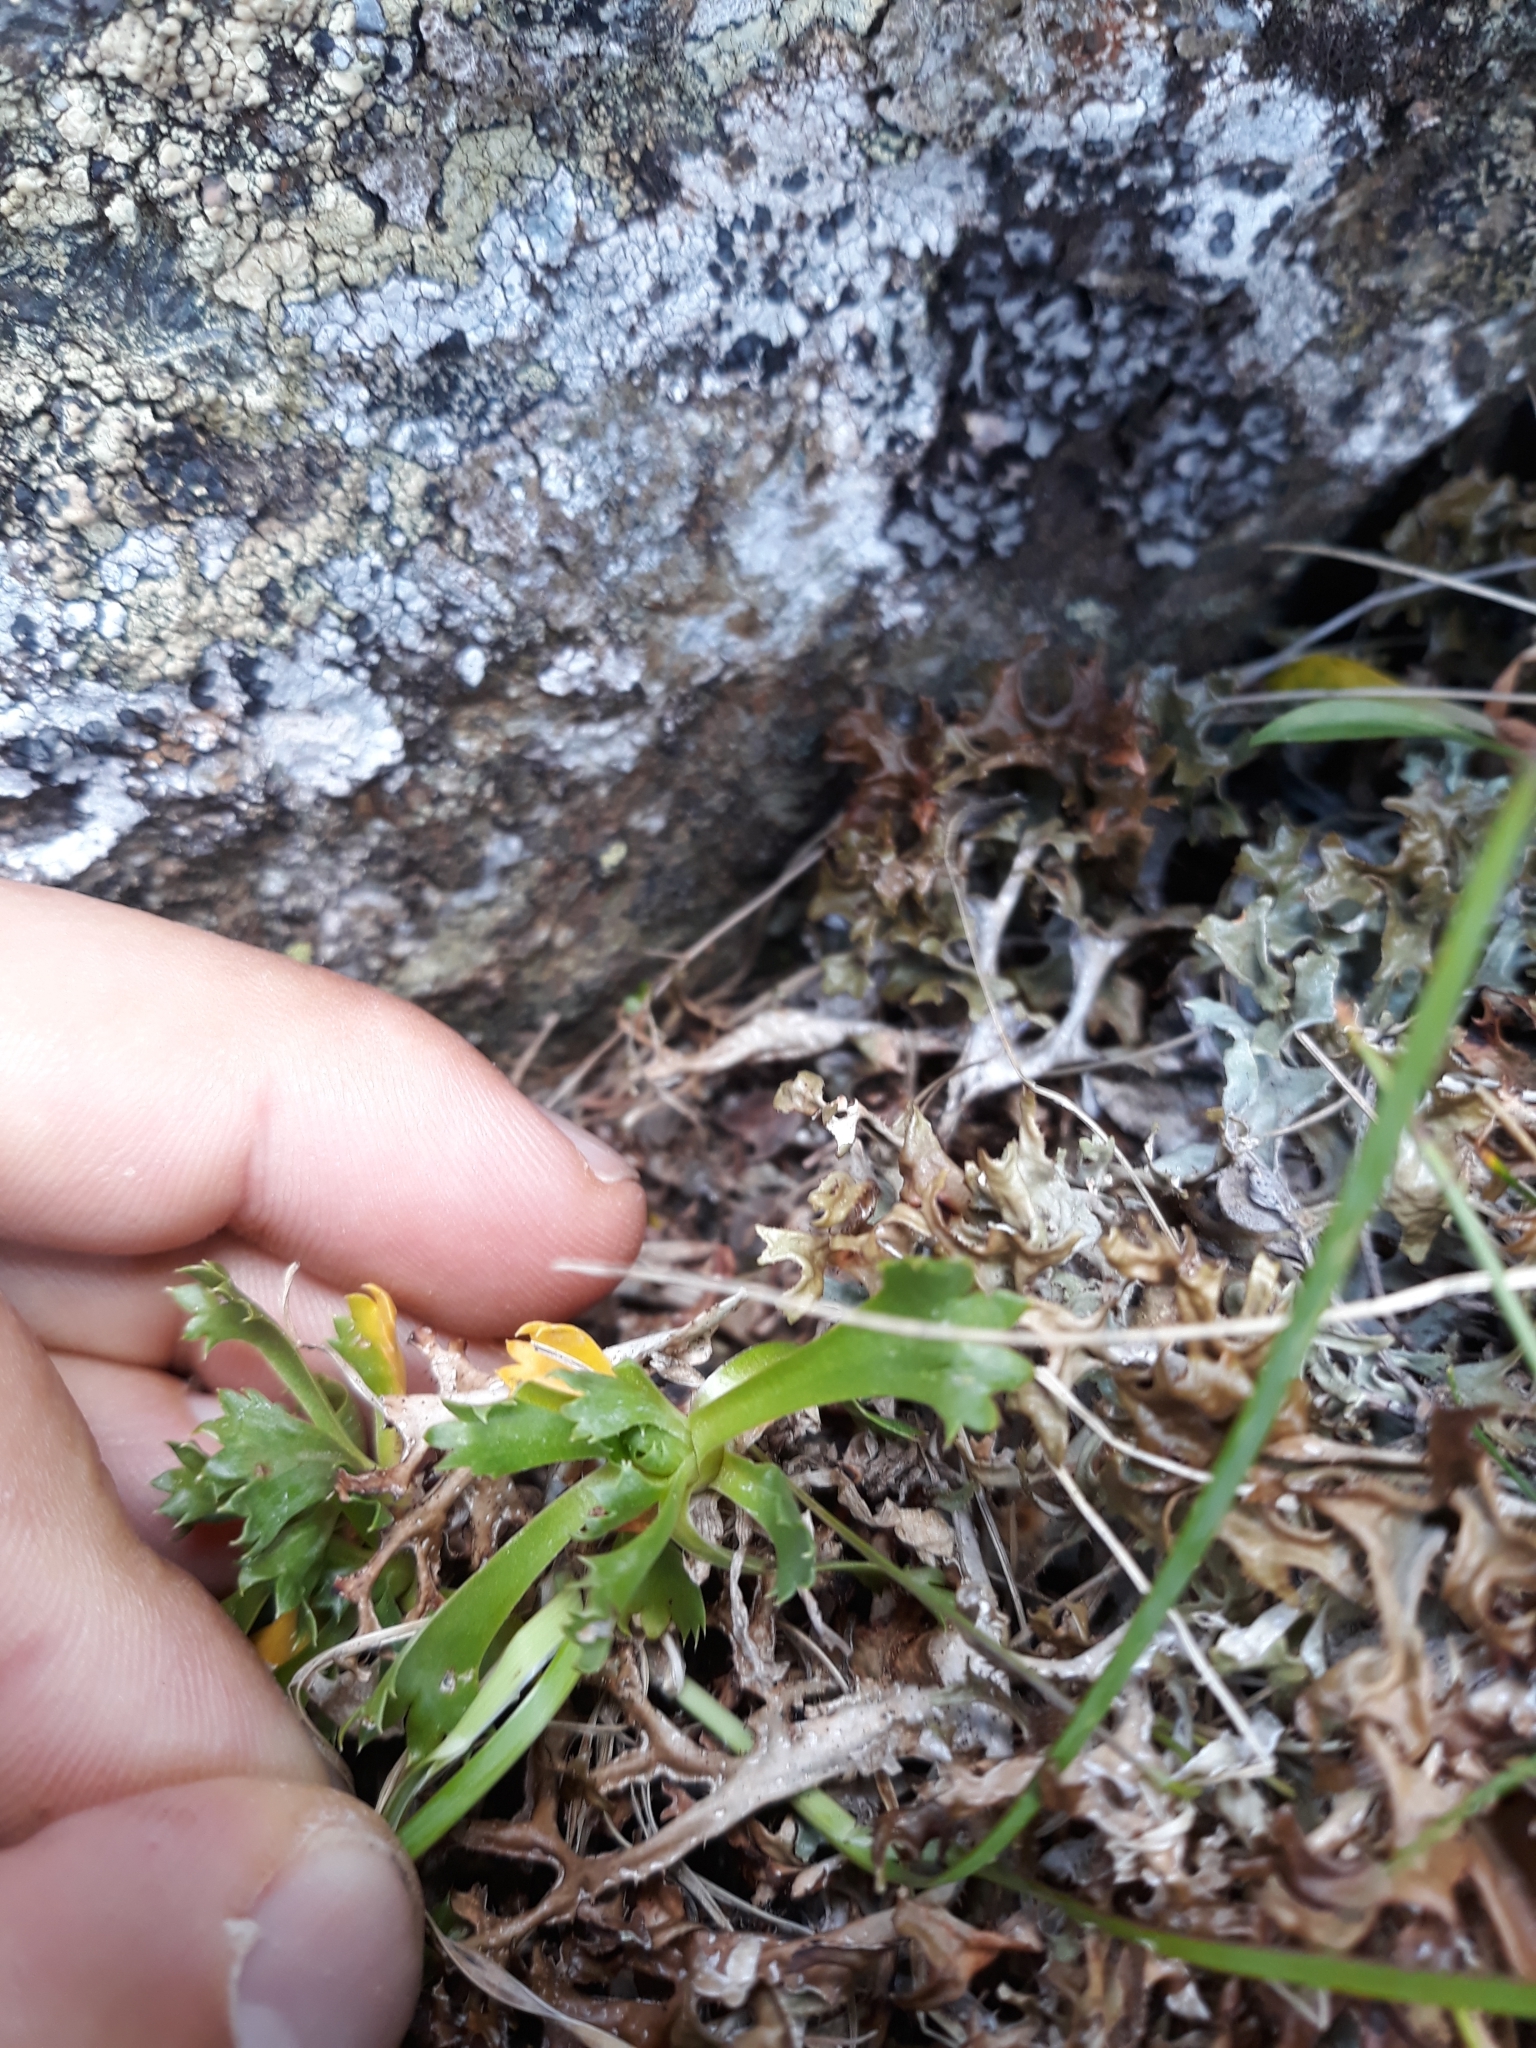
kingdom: Plantae
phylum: Tracheophyta
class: Magnoliopsida
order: Ericales
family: Primulaceae
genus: Primula
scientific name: Primula minima
